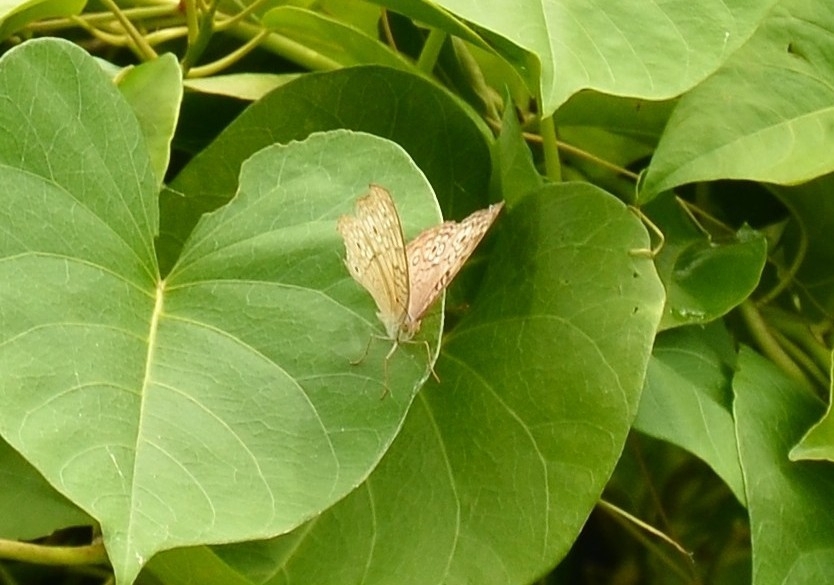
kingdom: Animalia
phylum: Arthropoda
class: Insecta
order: Lepidoptera
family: Nymphalidae
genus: Junonia
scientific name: Junonia atlites
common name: Grey pansy
